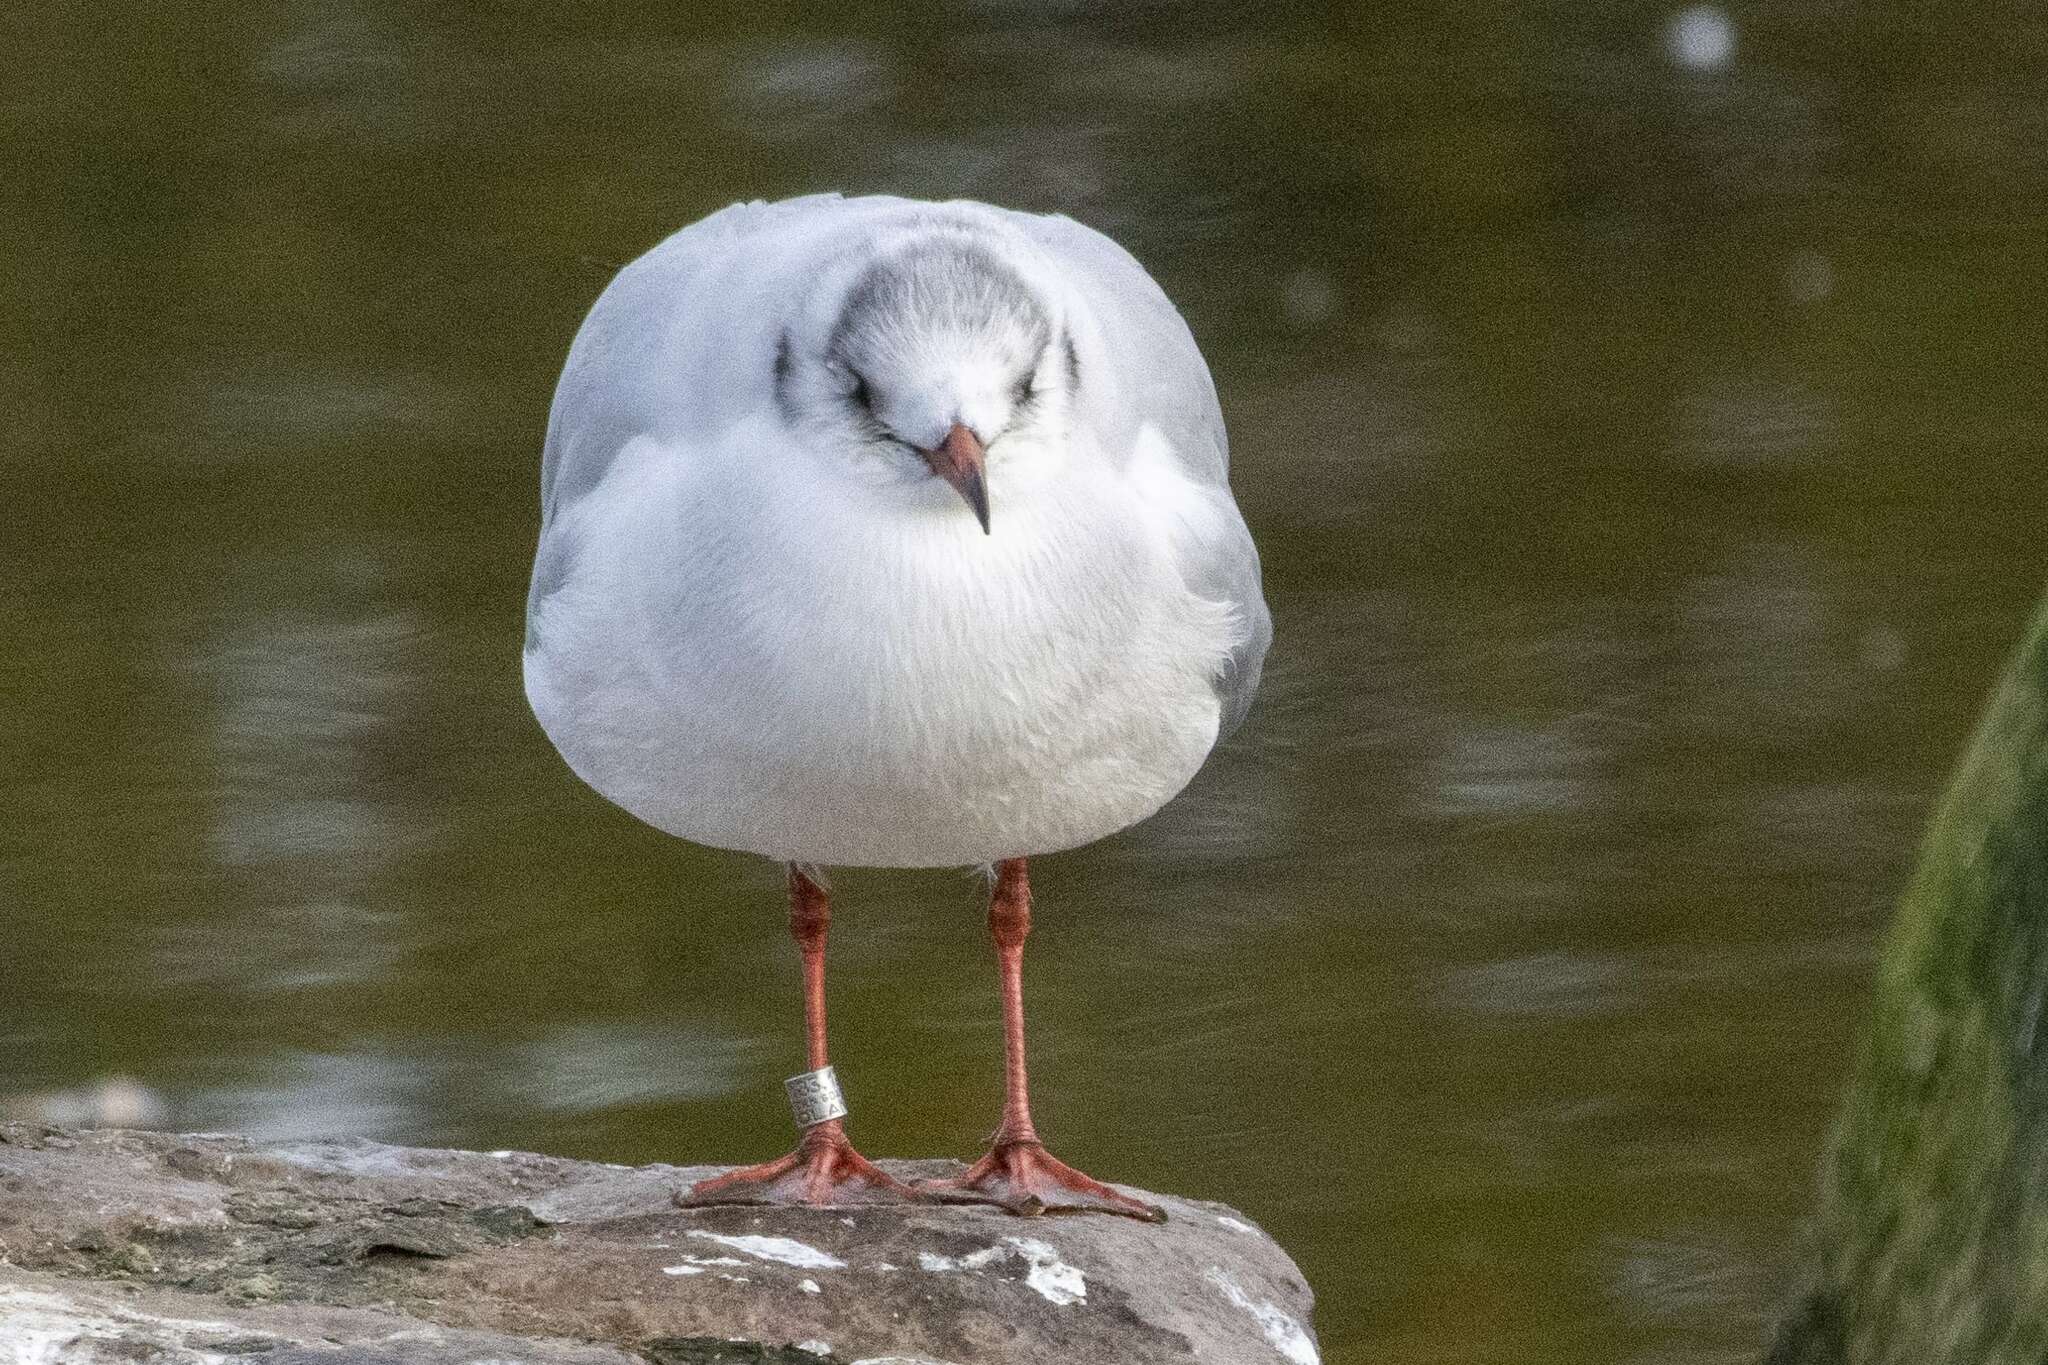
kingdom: Animalia
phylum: Chordata
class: Aves
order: Charadriiformes
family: Laridae
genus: Chroicocephalus
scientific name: Chroicocephalus ridibundus
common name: Black-headed gull
